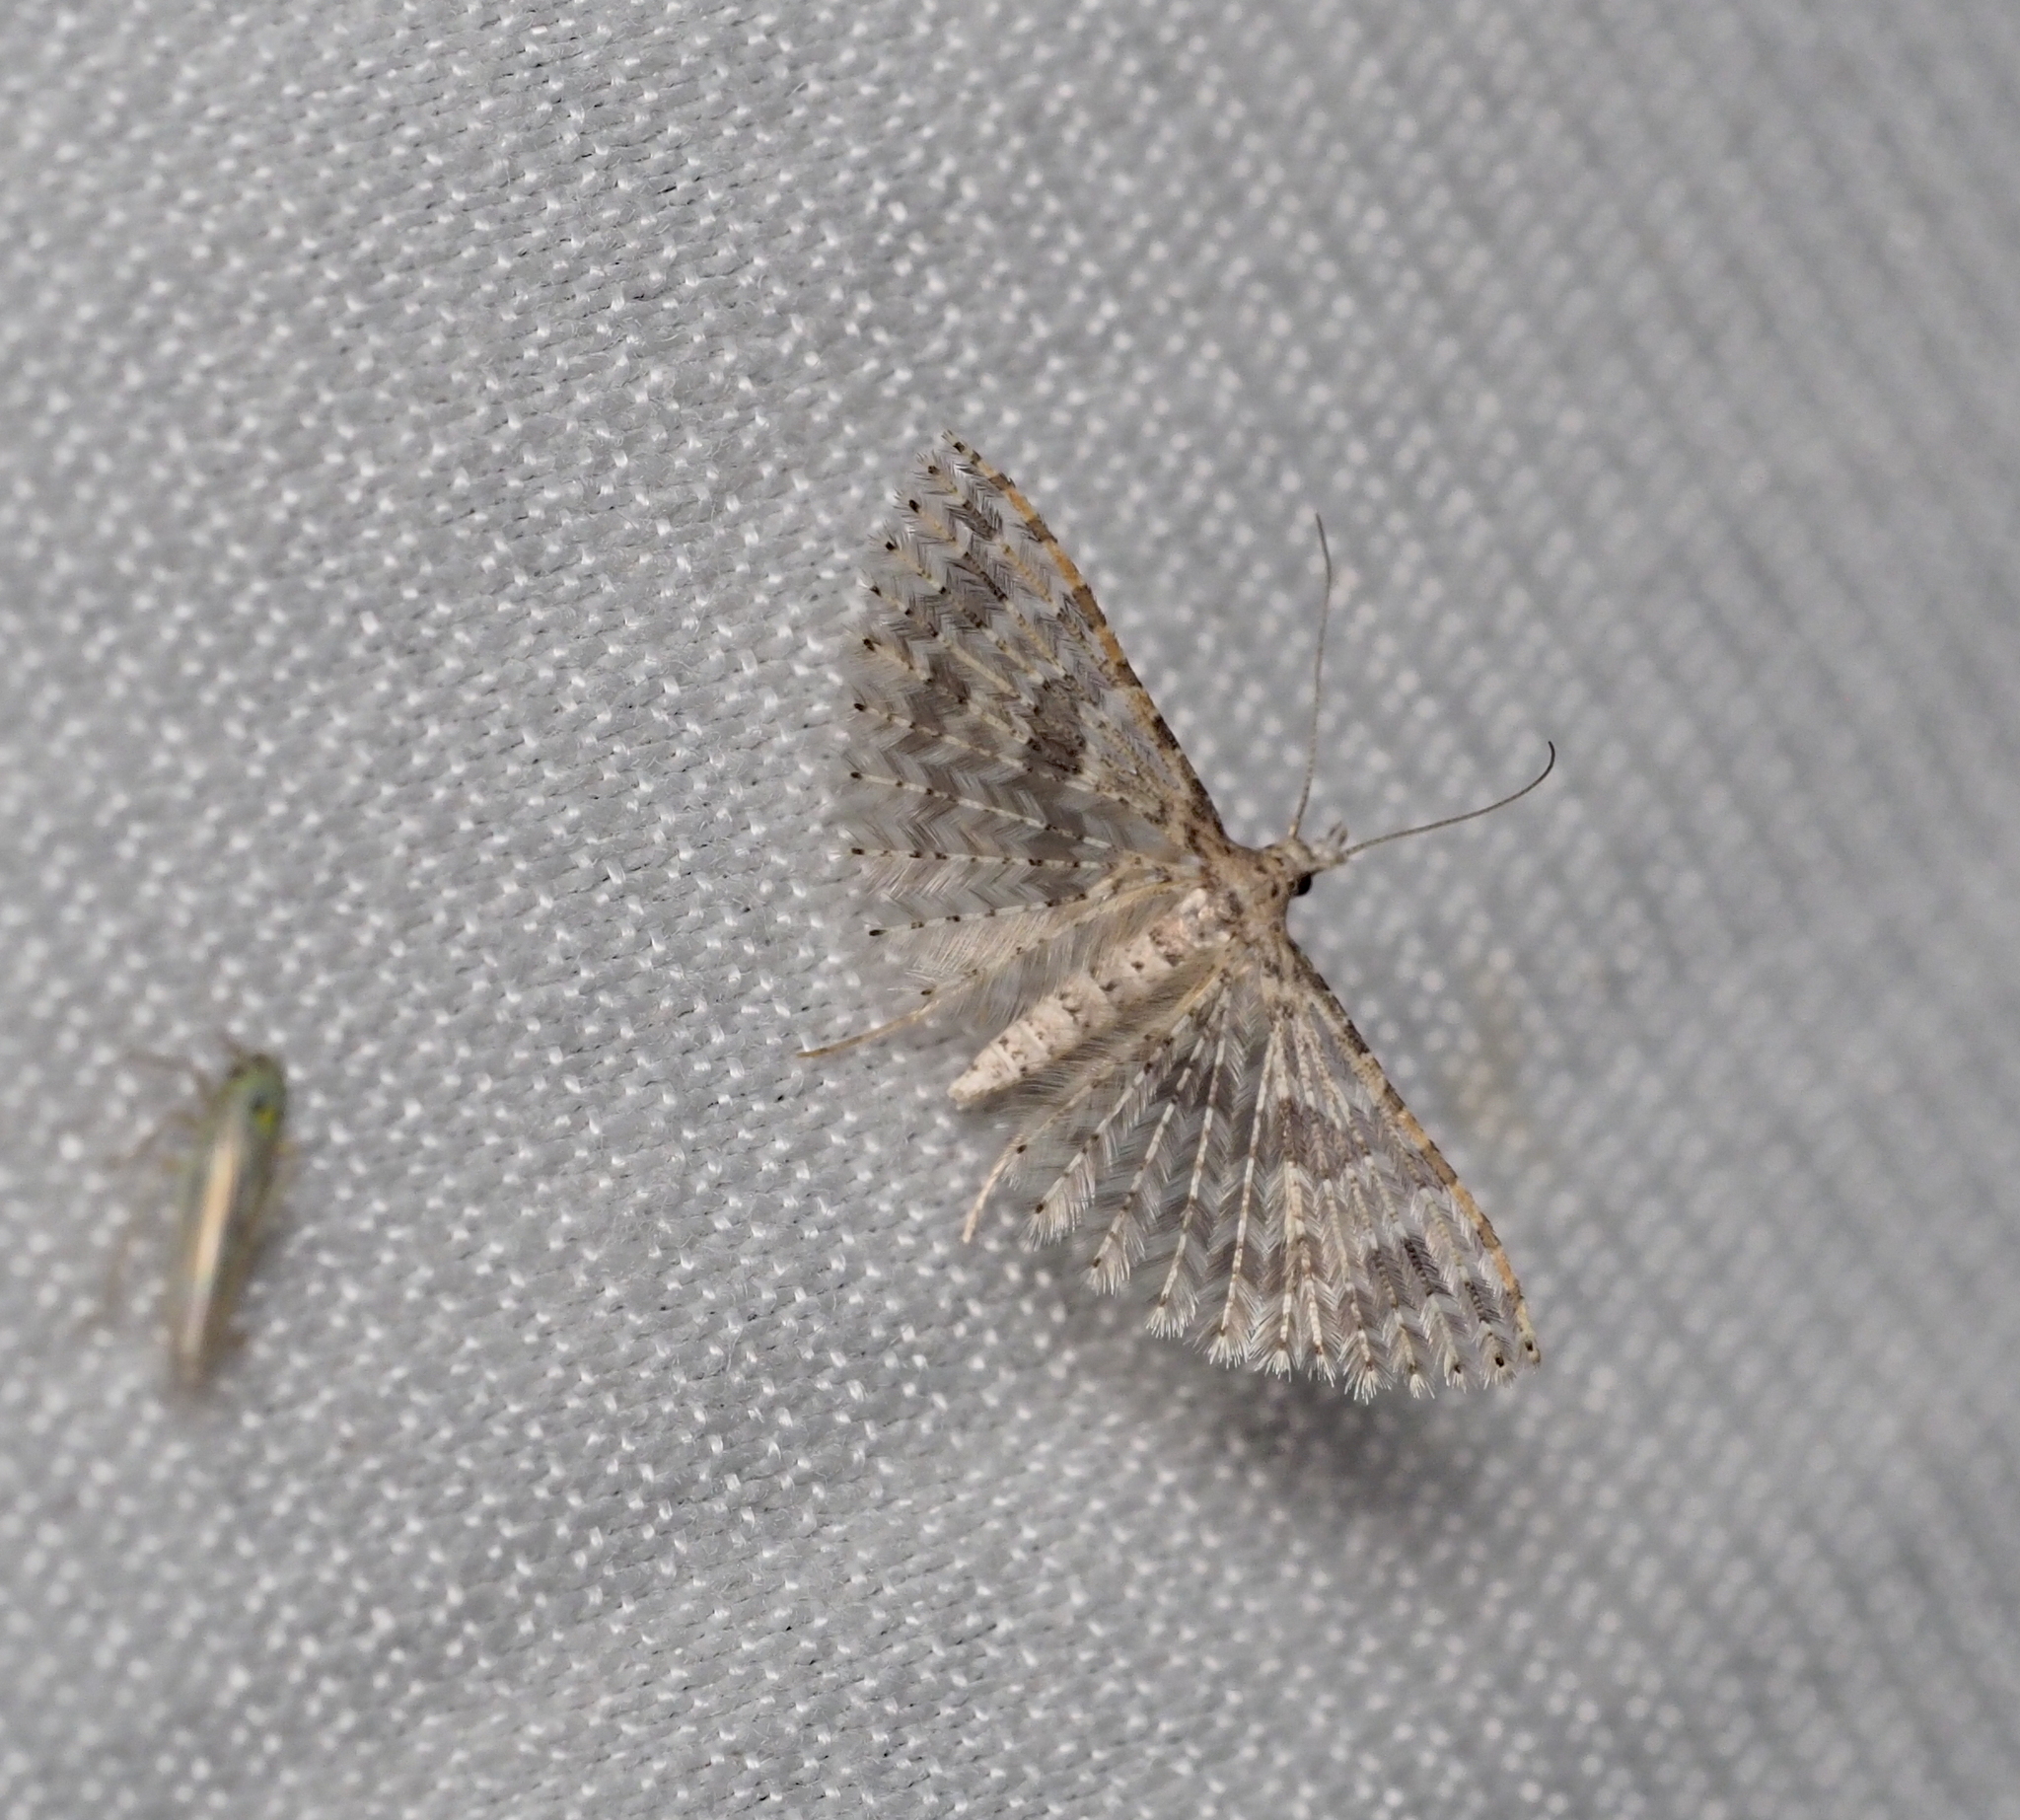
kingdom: Animalia
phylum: Arthropoda
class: Insecta
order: Lepidoptera
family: Alucitidae
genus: Alucita
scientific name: Alucita desmodactyla
